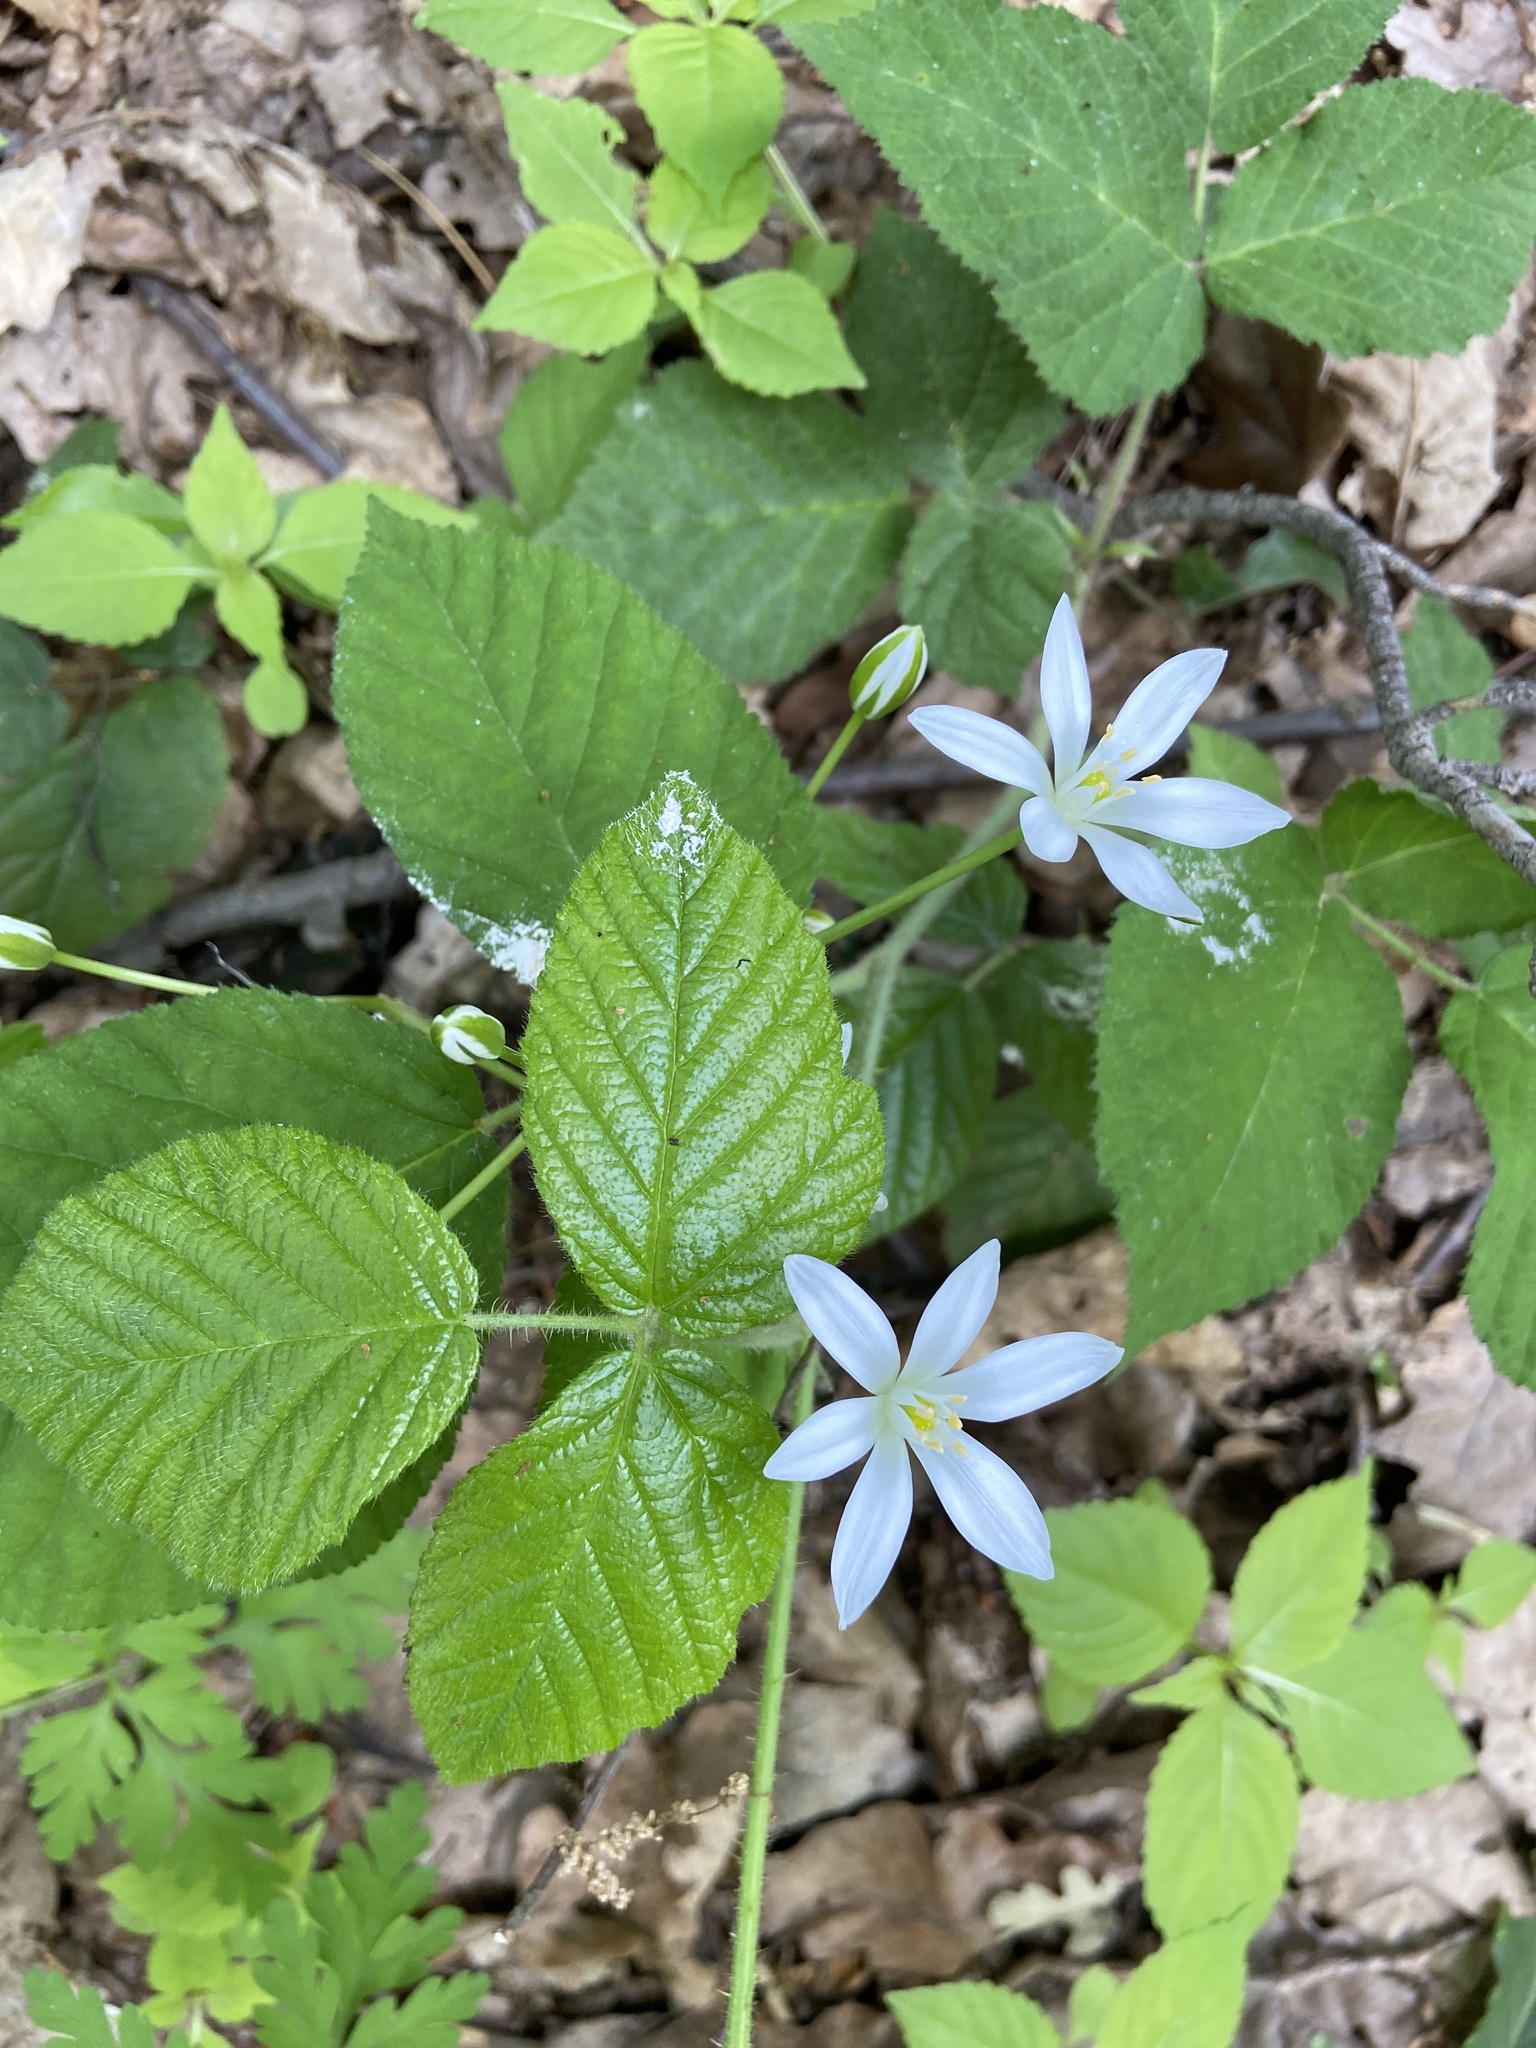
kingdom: Plantae
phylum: Tracheophyta
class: Liliopsida
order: Asparagales
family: Asparagaceae
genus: Ornithogalum
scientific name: Ornithogalum umbellatum
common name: Garden star-of-bethlehem
